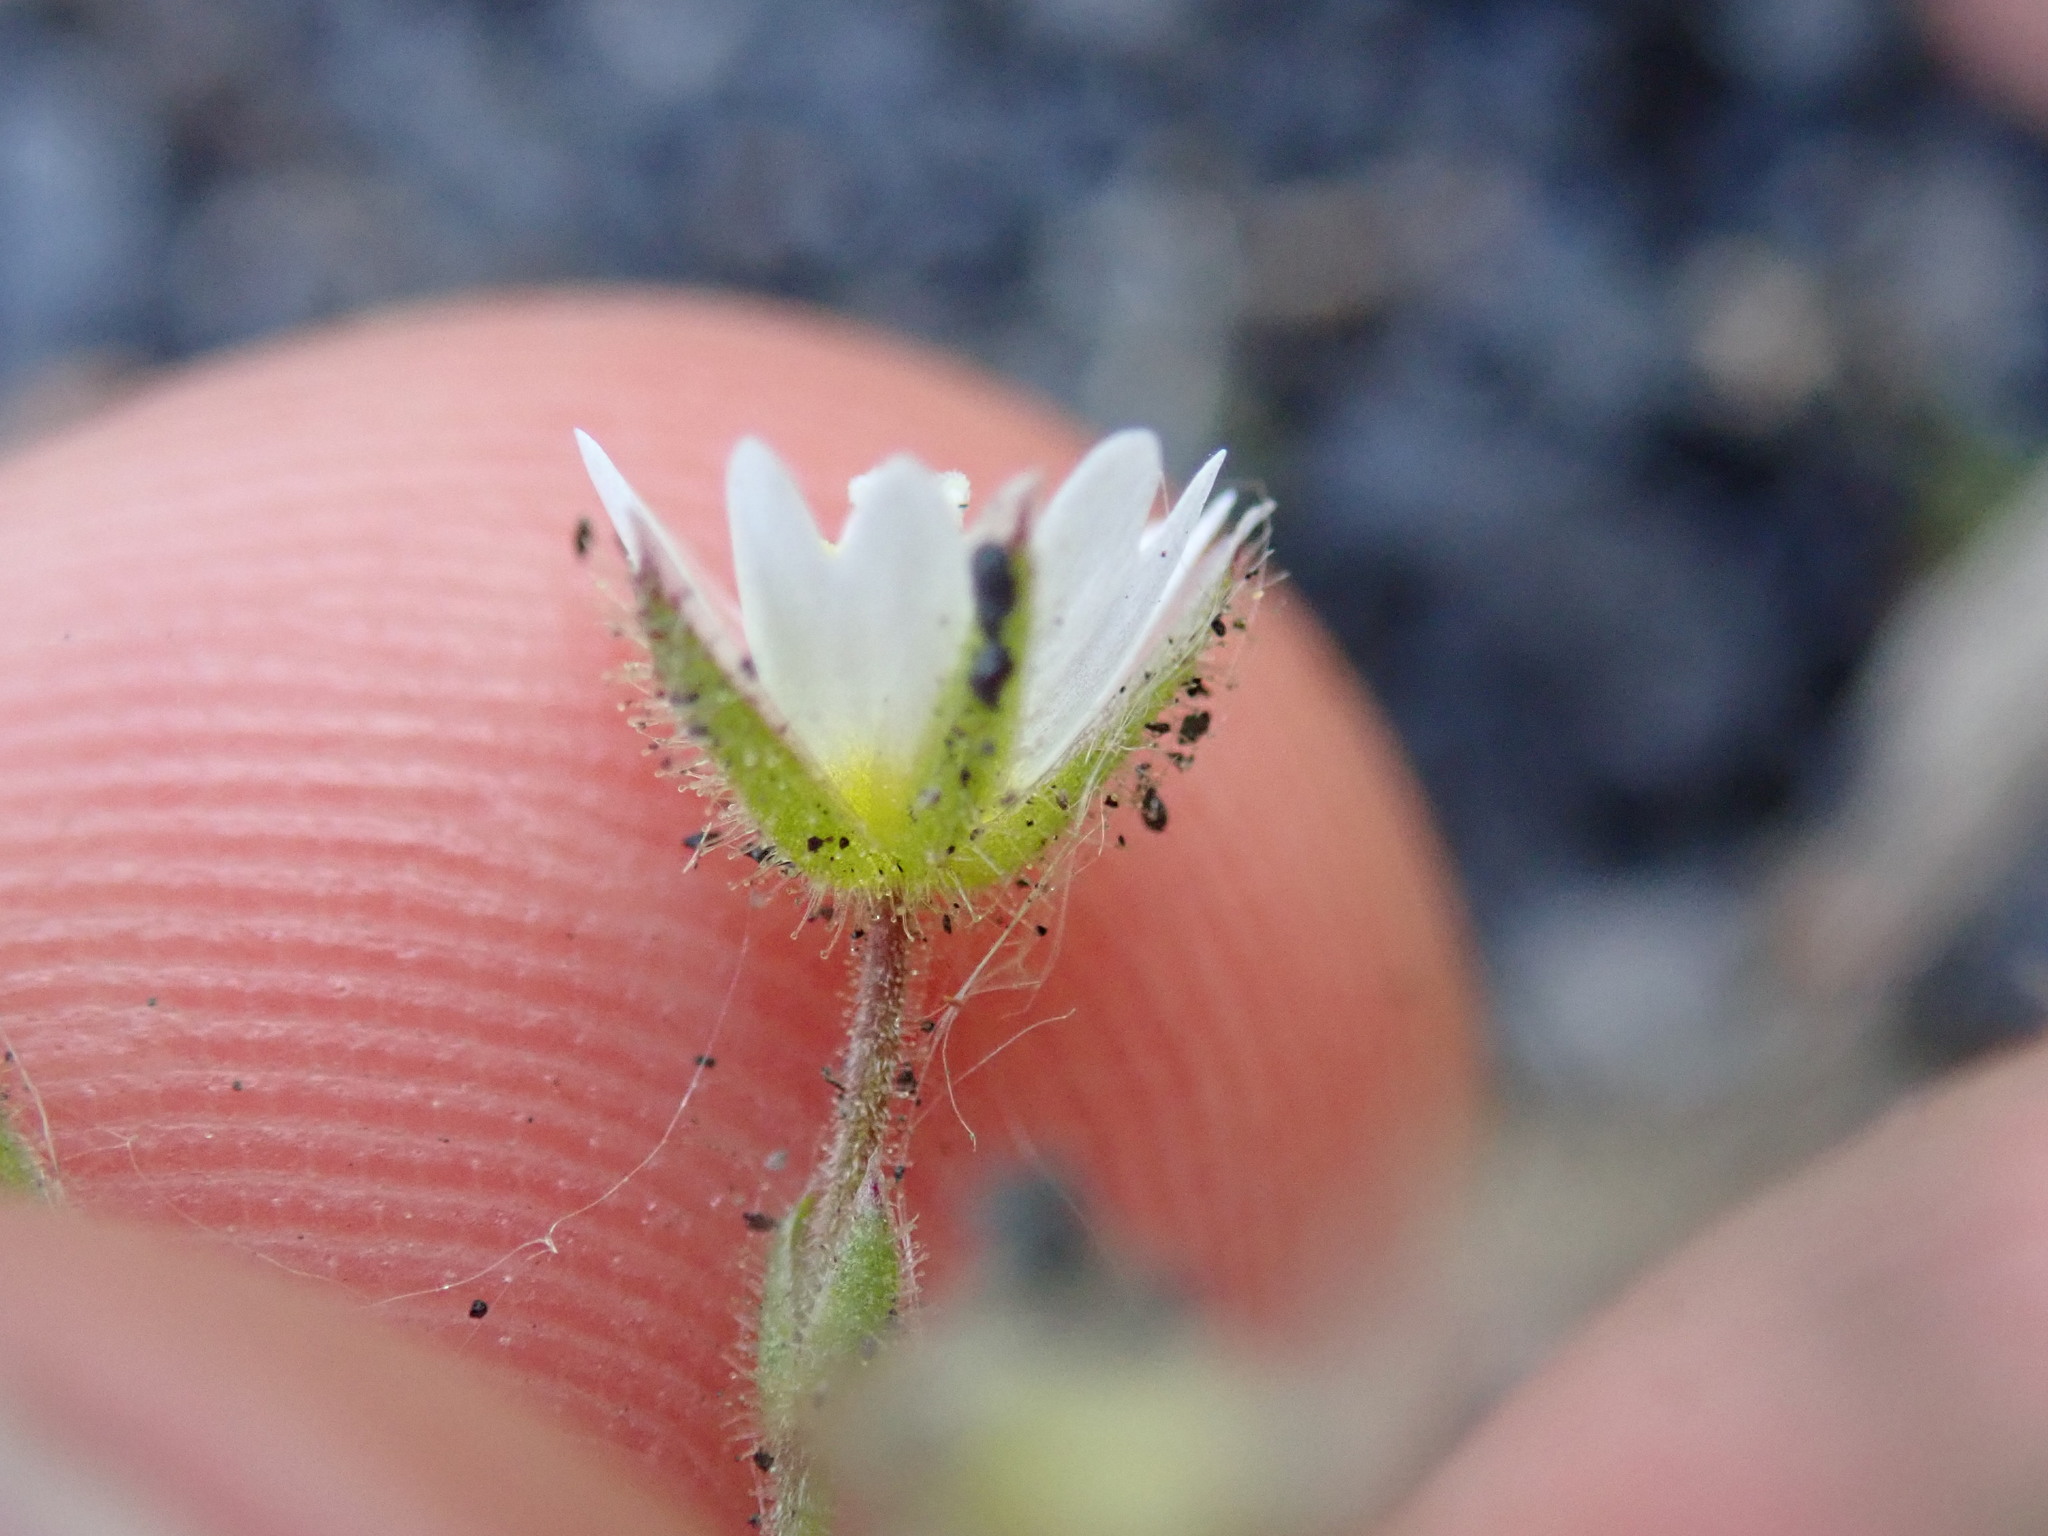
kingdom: Plantae
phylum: Tracheophyta
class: Magnoliopsida
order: Caryophyllales
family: Caryophyllaceae
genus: Cerastium
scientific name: Cerastium pumilum
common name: Dwarf mouse-ear
